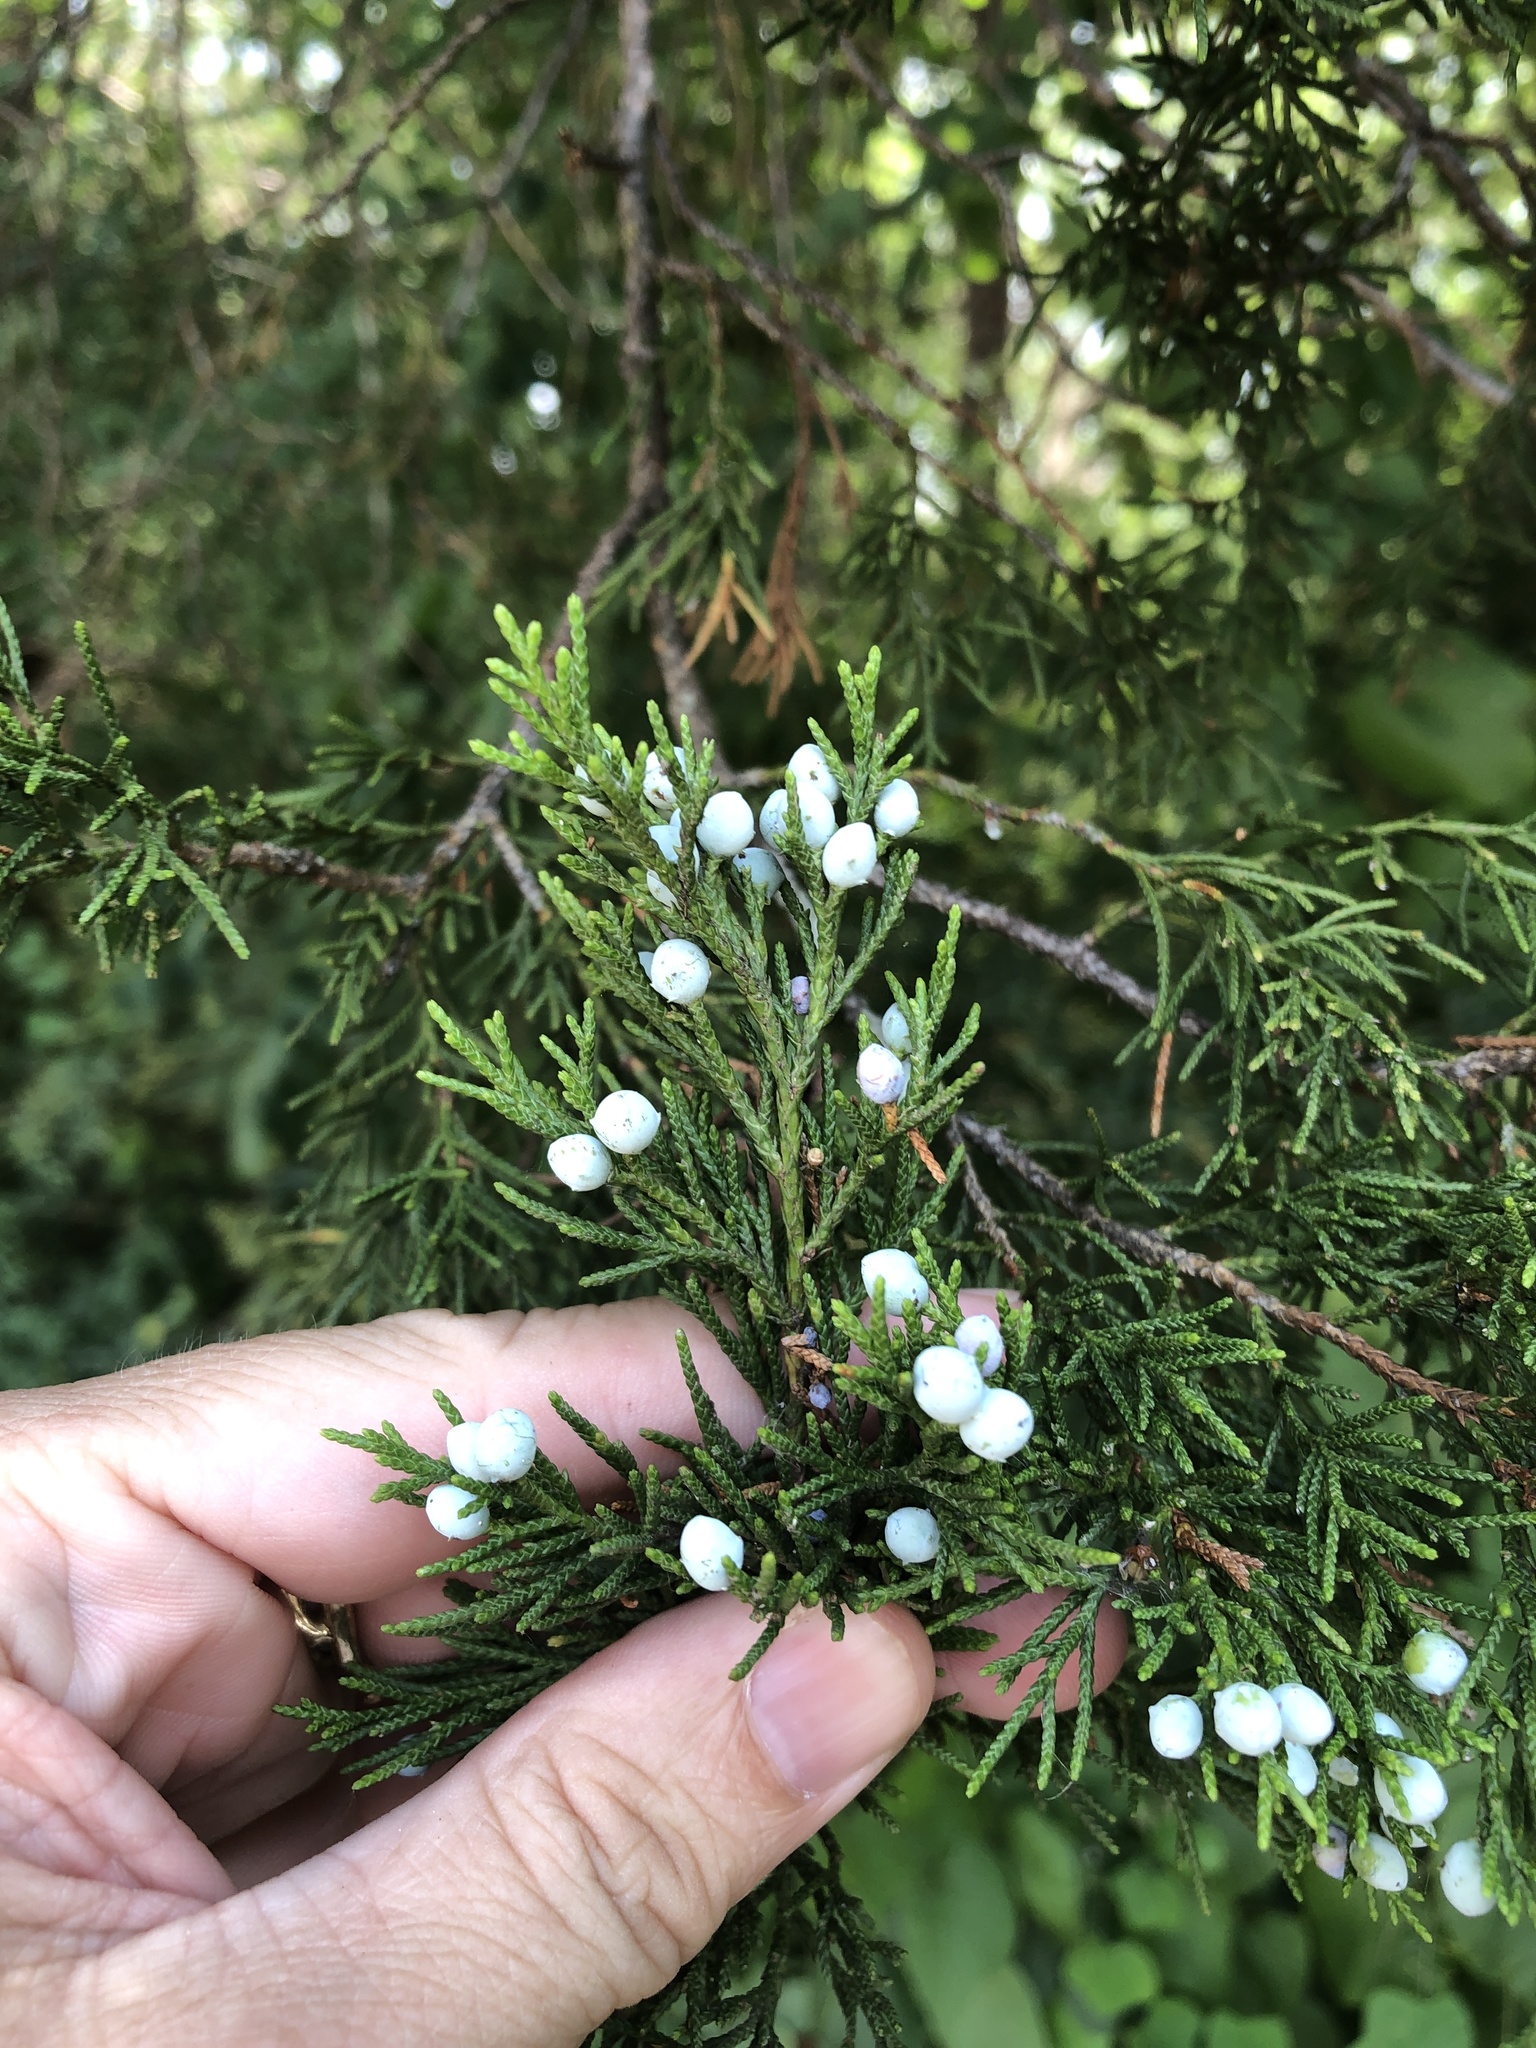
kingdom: Plantae
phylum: Tracheophyta
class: Pinopsida
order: Pinales
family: Cupressaceae
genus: Juniperus
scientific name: Juniperus virginiana
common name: Red juniper
